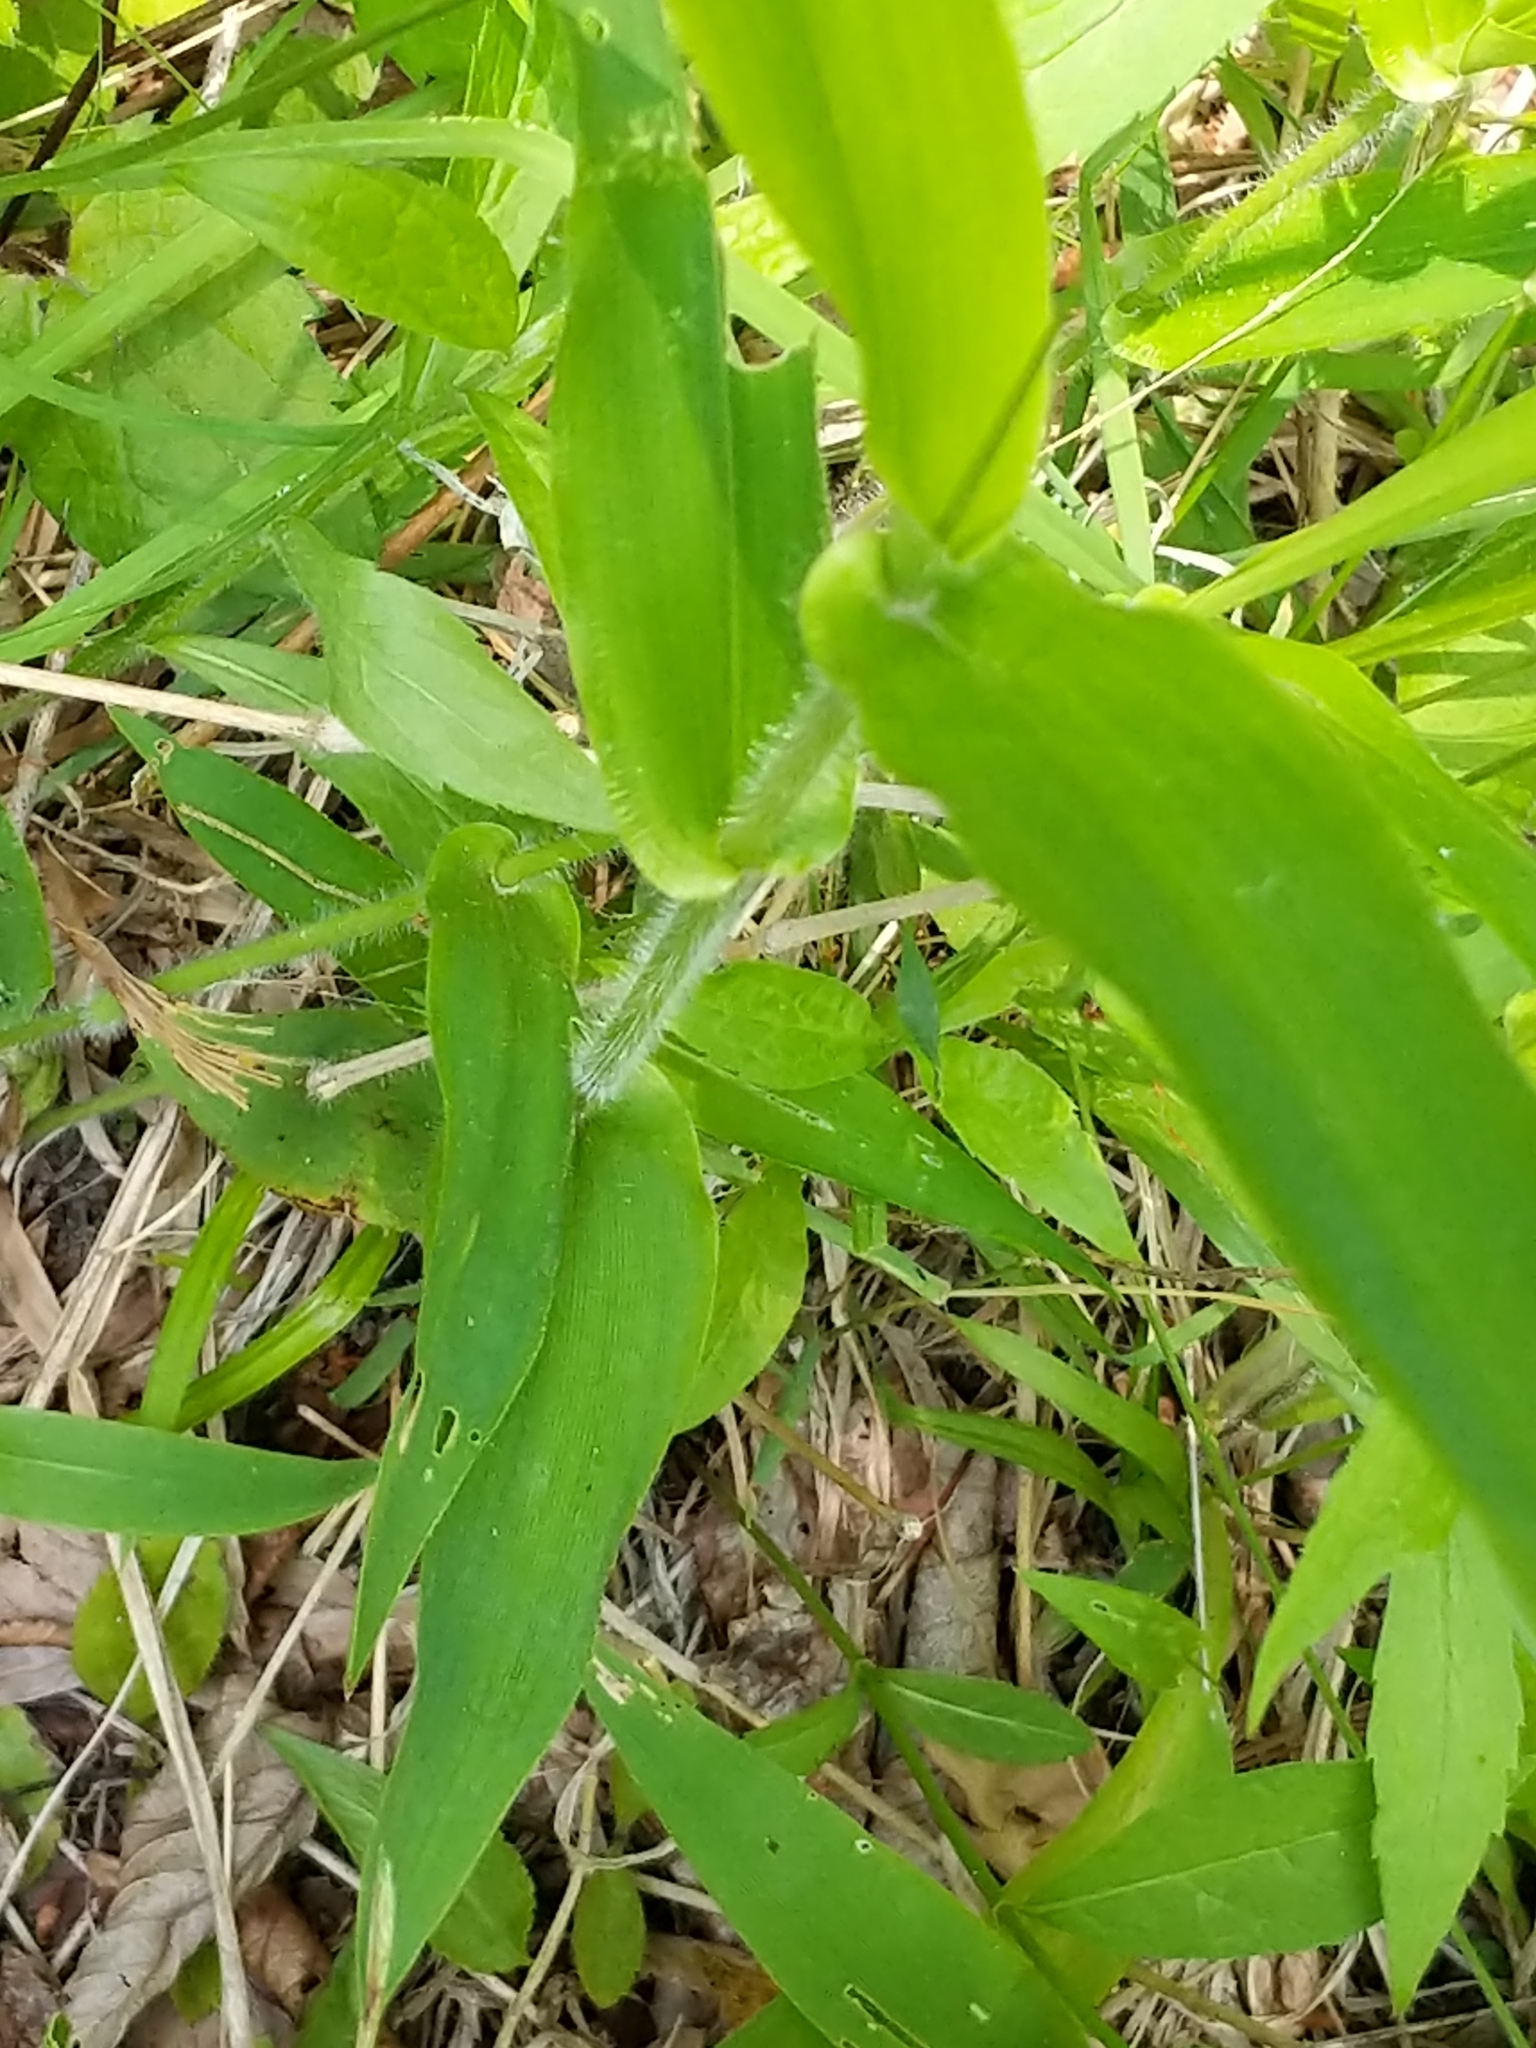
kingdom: Plantae
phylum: Tracheophyta
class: Liliopsida
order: Poales
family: Poaceae
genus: Dichanthelium
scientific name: Dichanthelium clandestinum
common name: Deer-tongue grass
